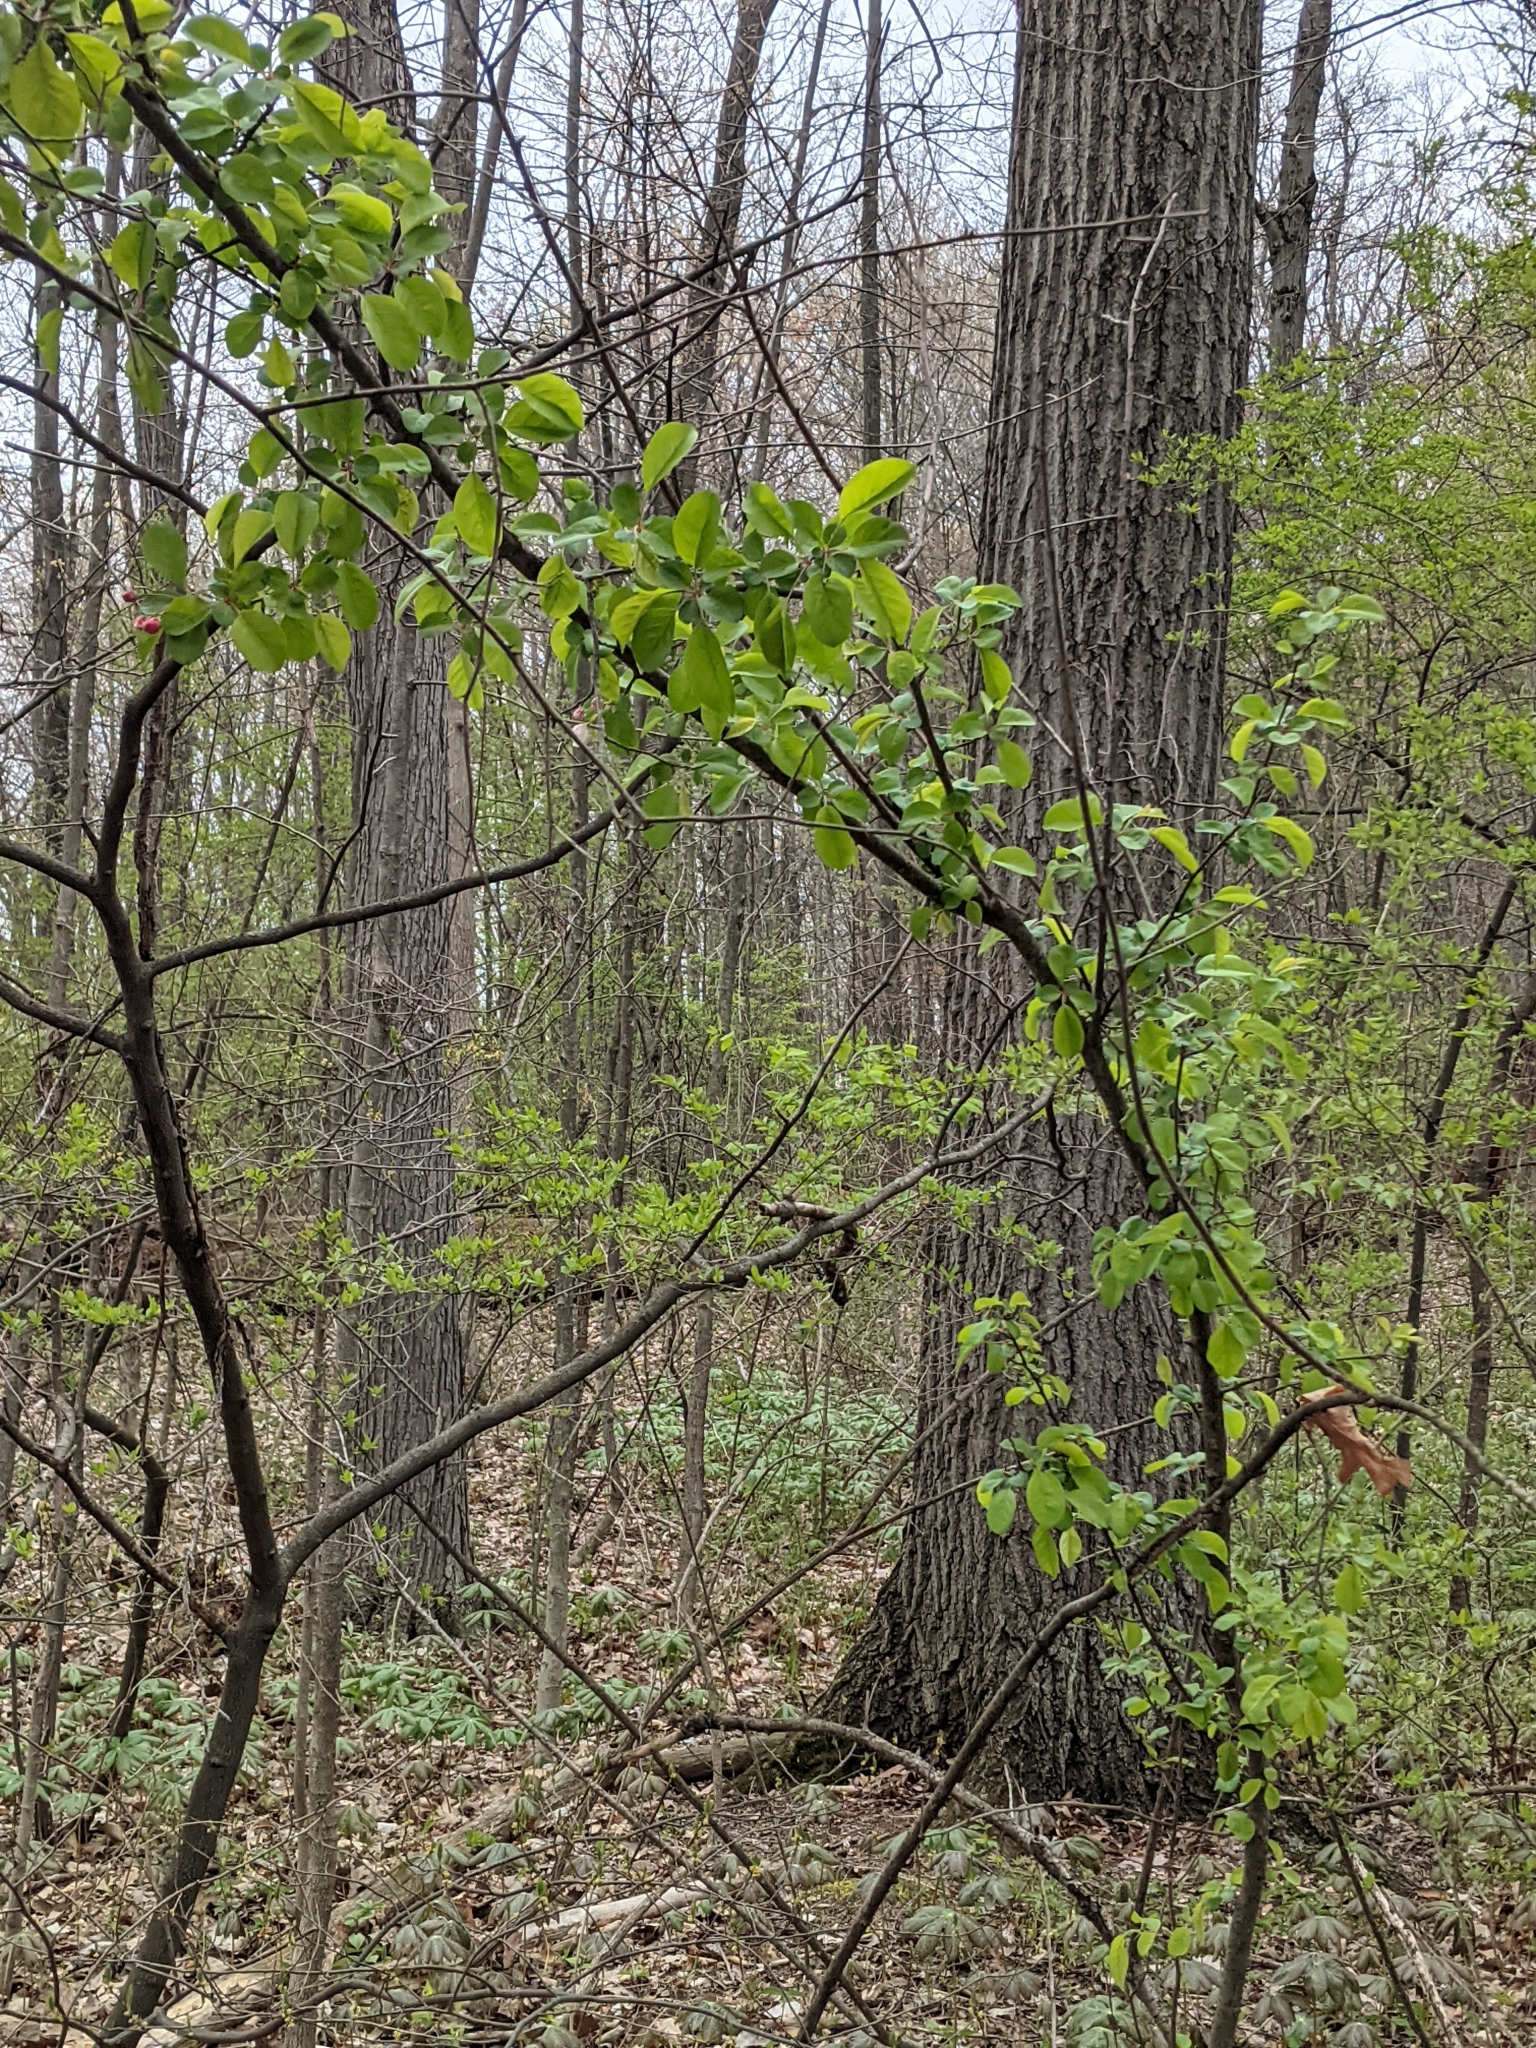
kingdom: Plantae
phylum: Tracheophyta
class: Magnoliopsida
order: Rosales
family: Rosaceae
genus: Malus
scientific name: Malus baccata
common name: Siberian crab
